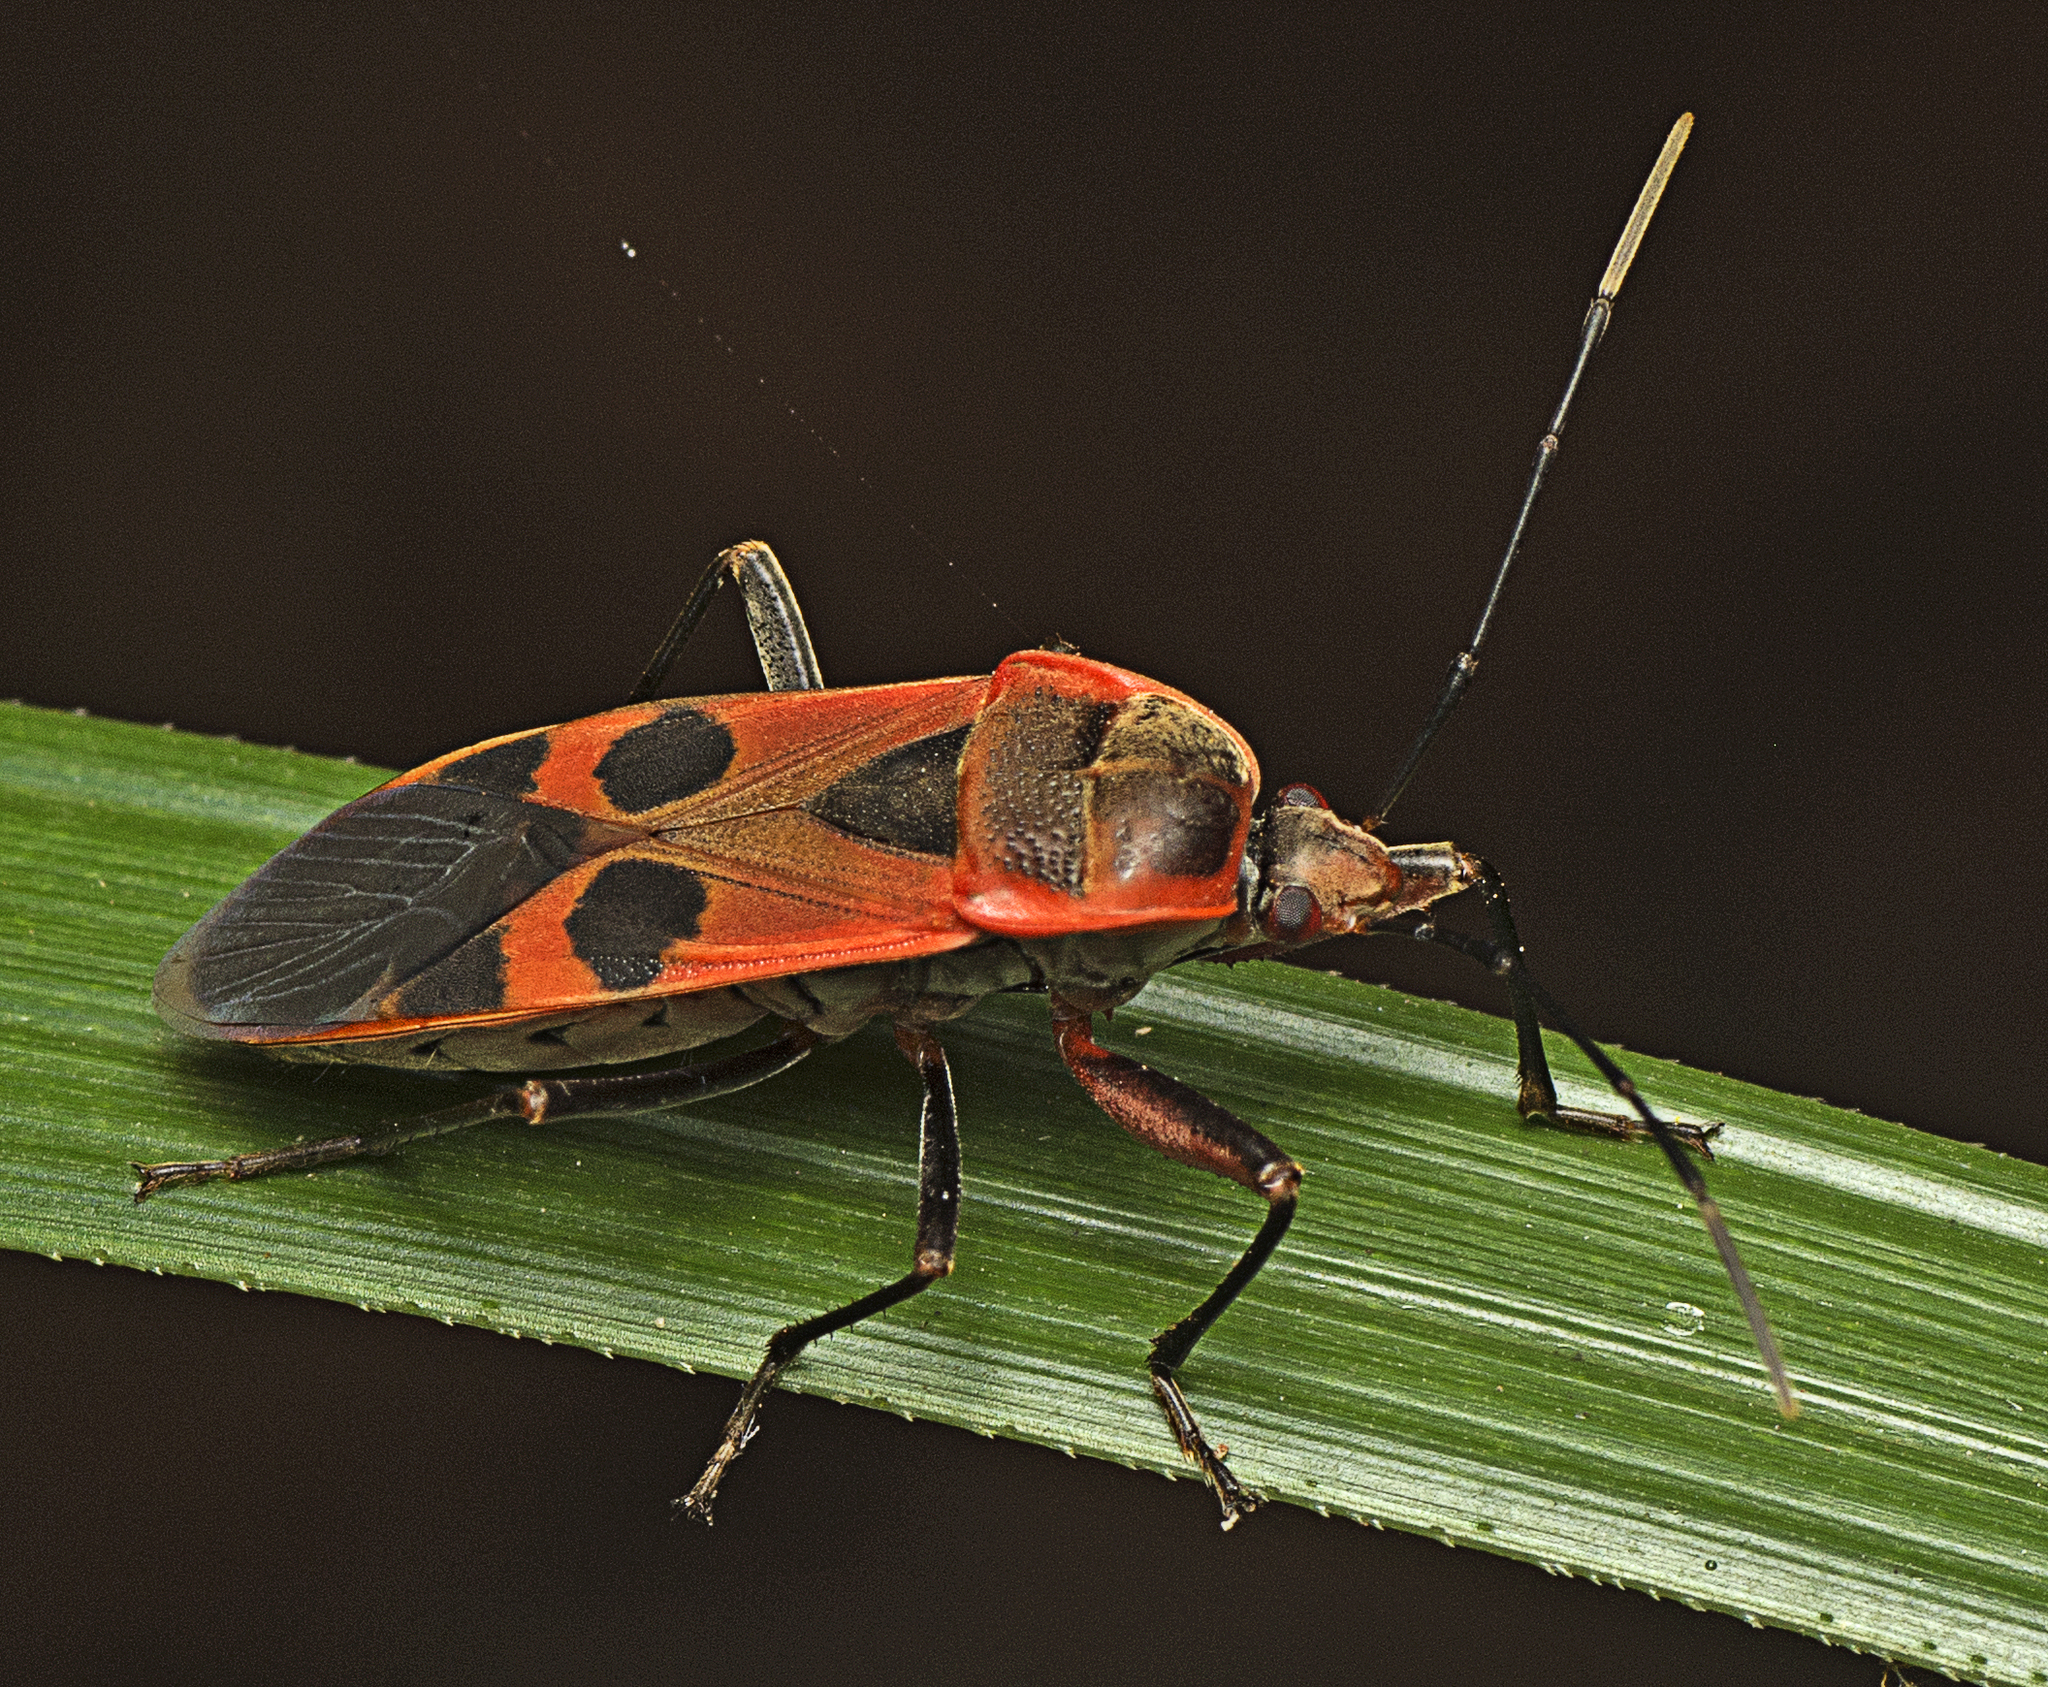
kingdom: Animalia
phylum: Arthropoda
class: Insecta
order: Hemiptera
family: Largidae
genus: Physopelta
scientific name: Physopelta gutta
